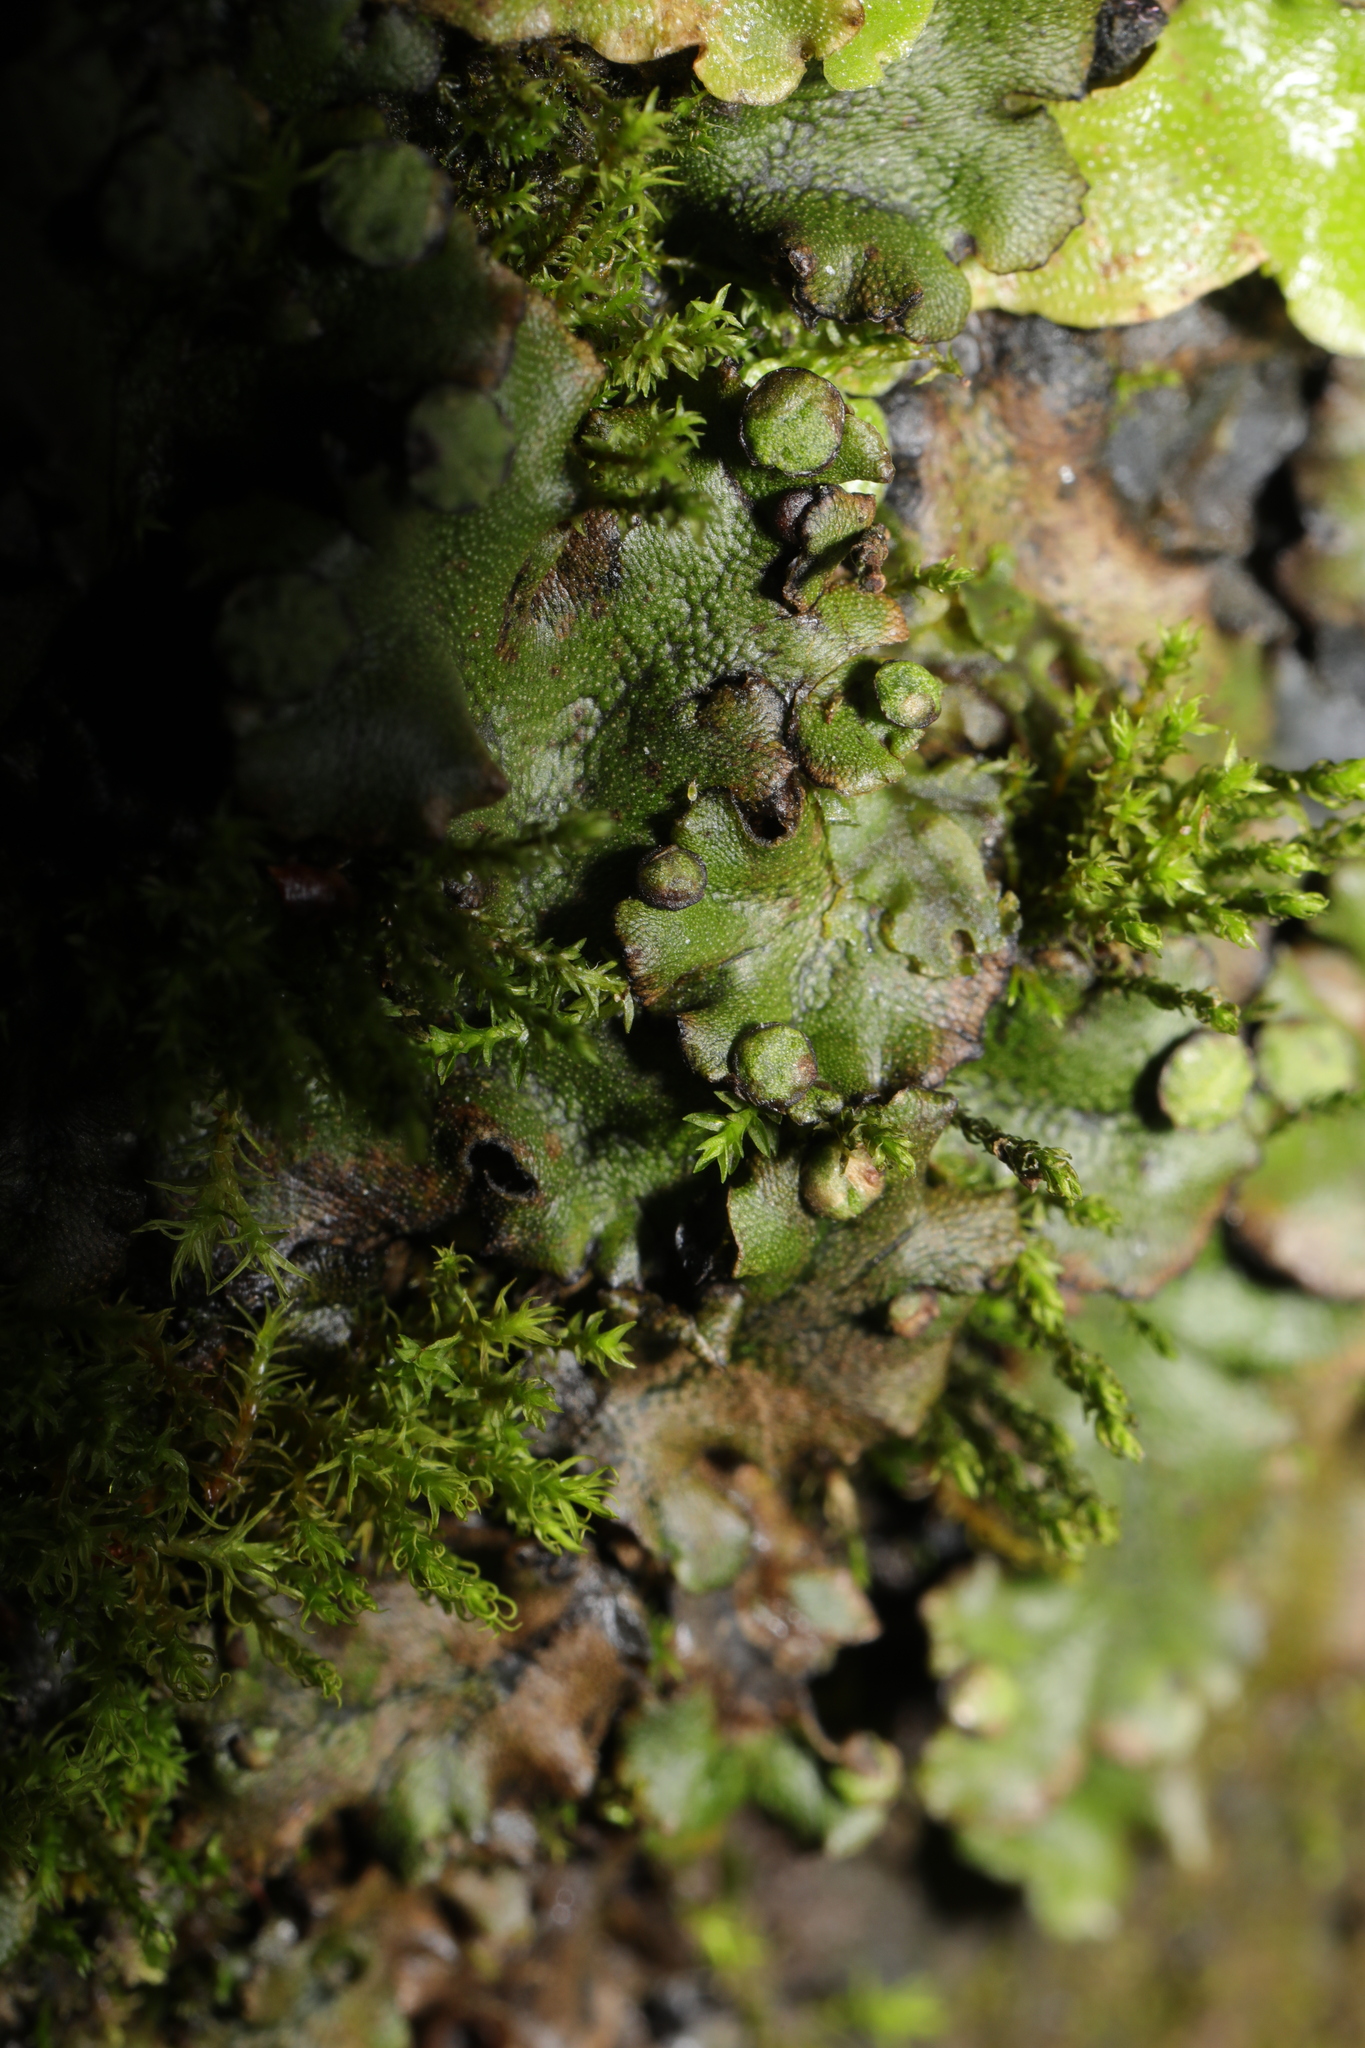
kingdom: Plantae
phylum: Marchantiophyta
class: Marchantiopsida
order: Marchantiales
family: Marchantiaceae
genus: Marchantia
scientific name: Marchantia polymorpha
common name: Common liverwort
